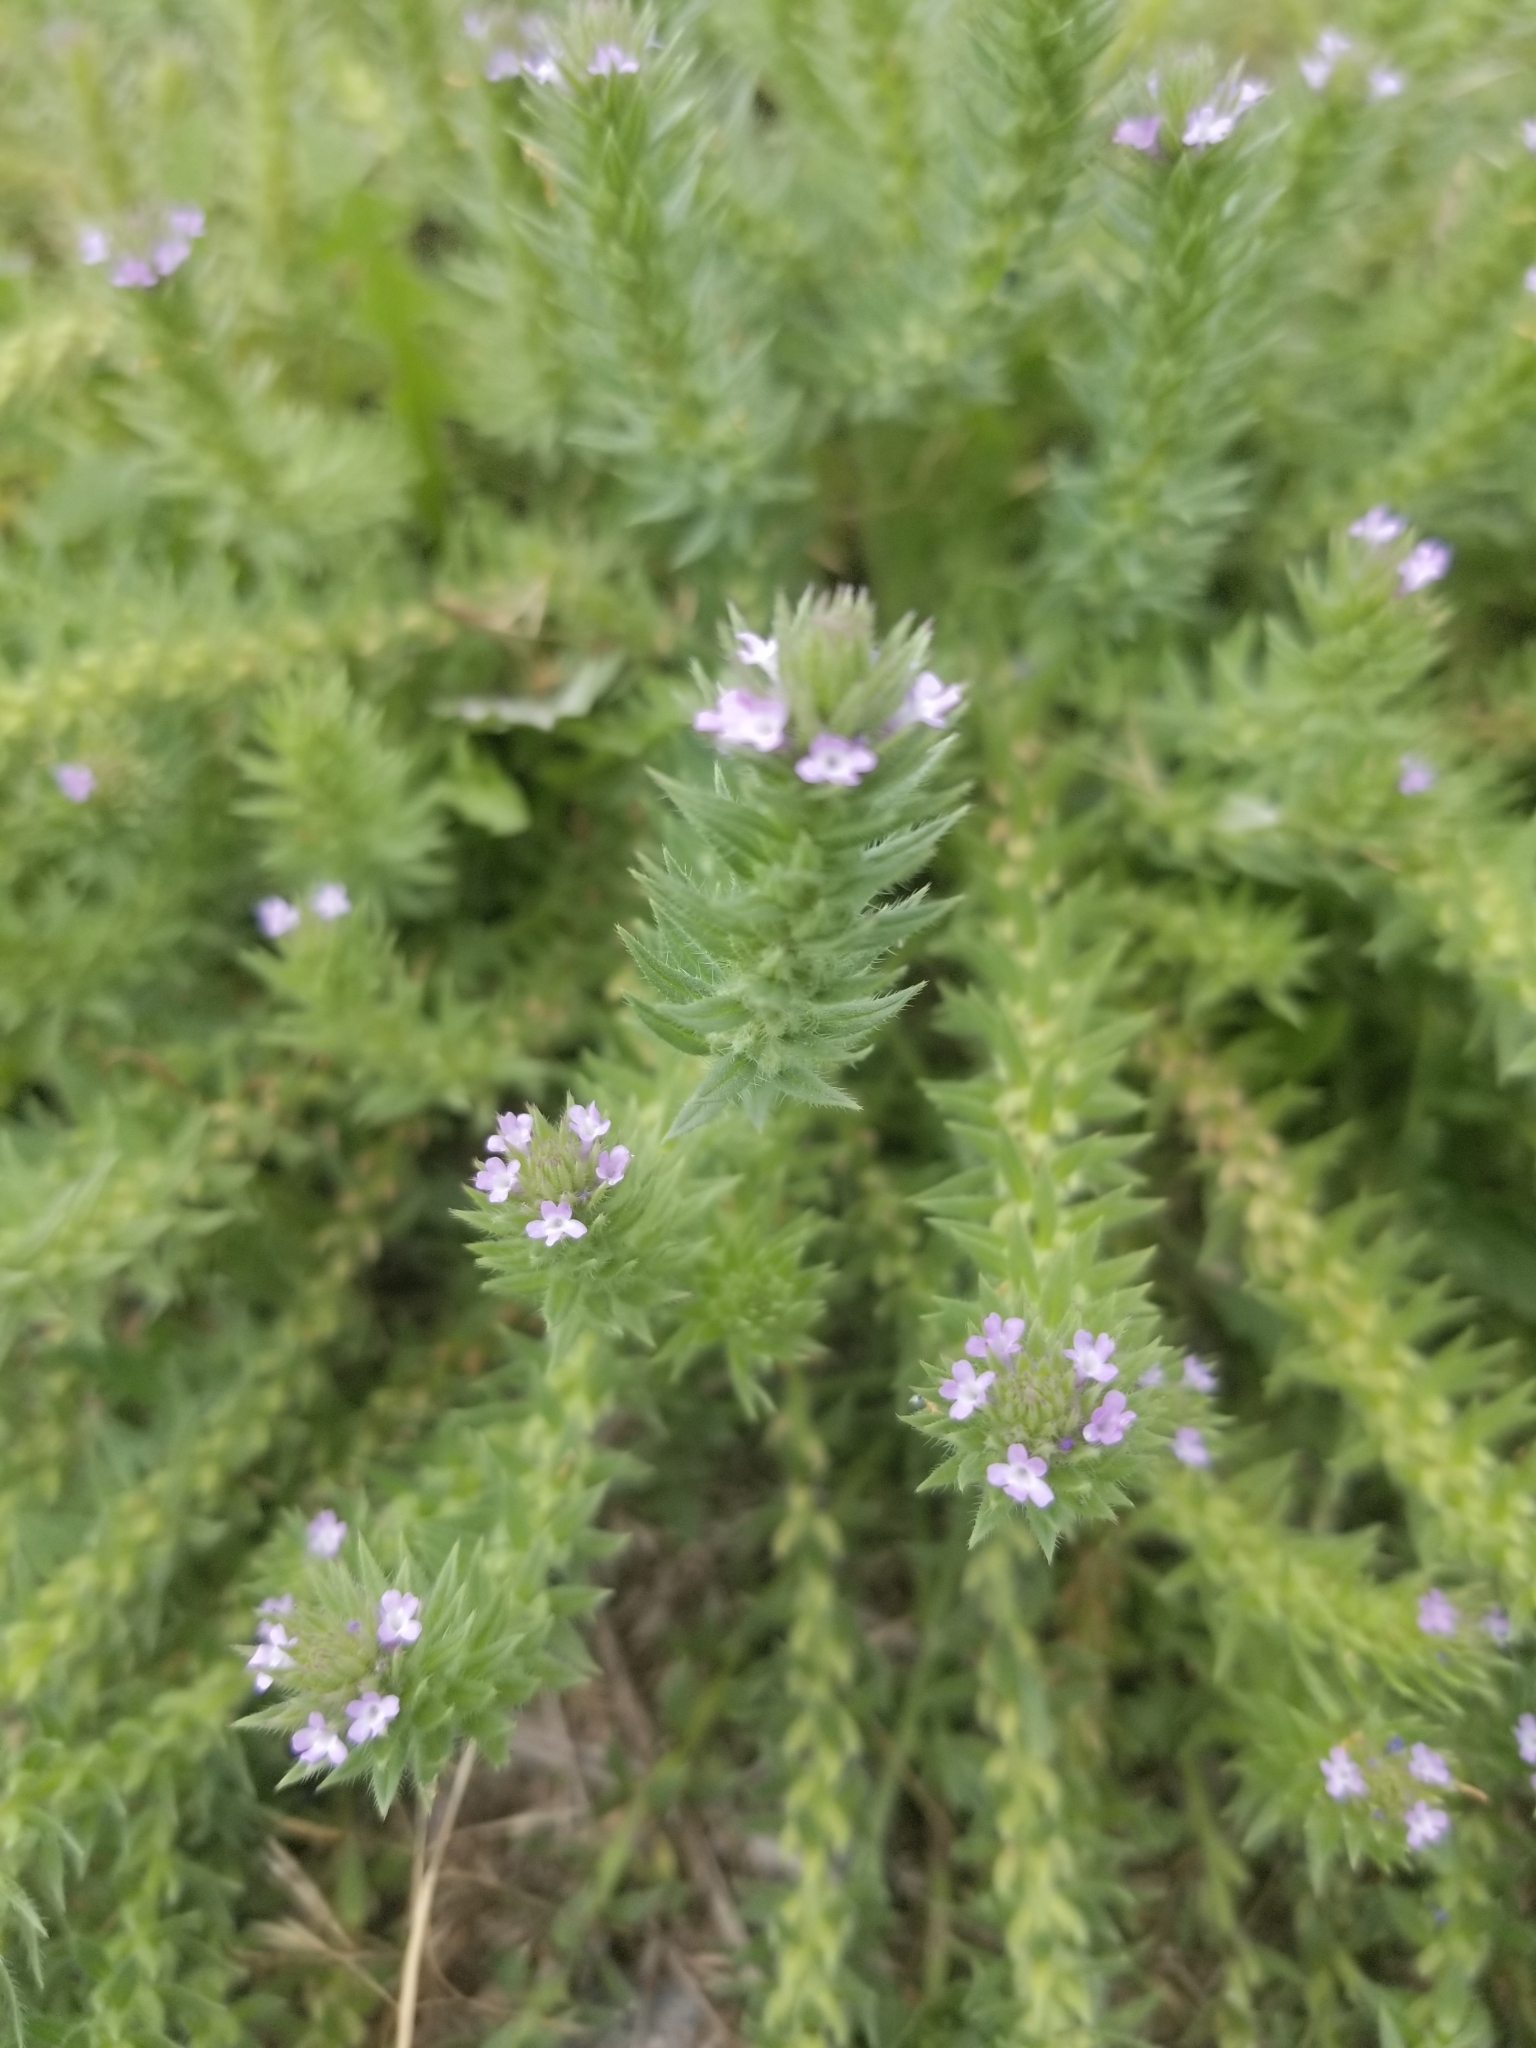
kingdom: Plantae
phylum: Tracheophyta
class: Magnoliopsida
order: Lamiales
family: Verbenaceae
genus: Verbena
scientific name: Verbena bracteata
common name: Bracted vervain
